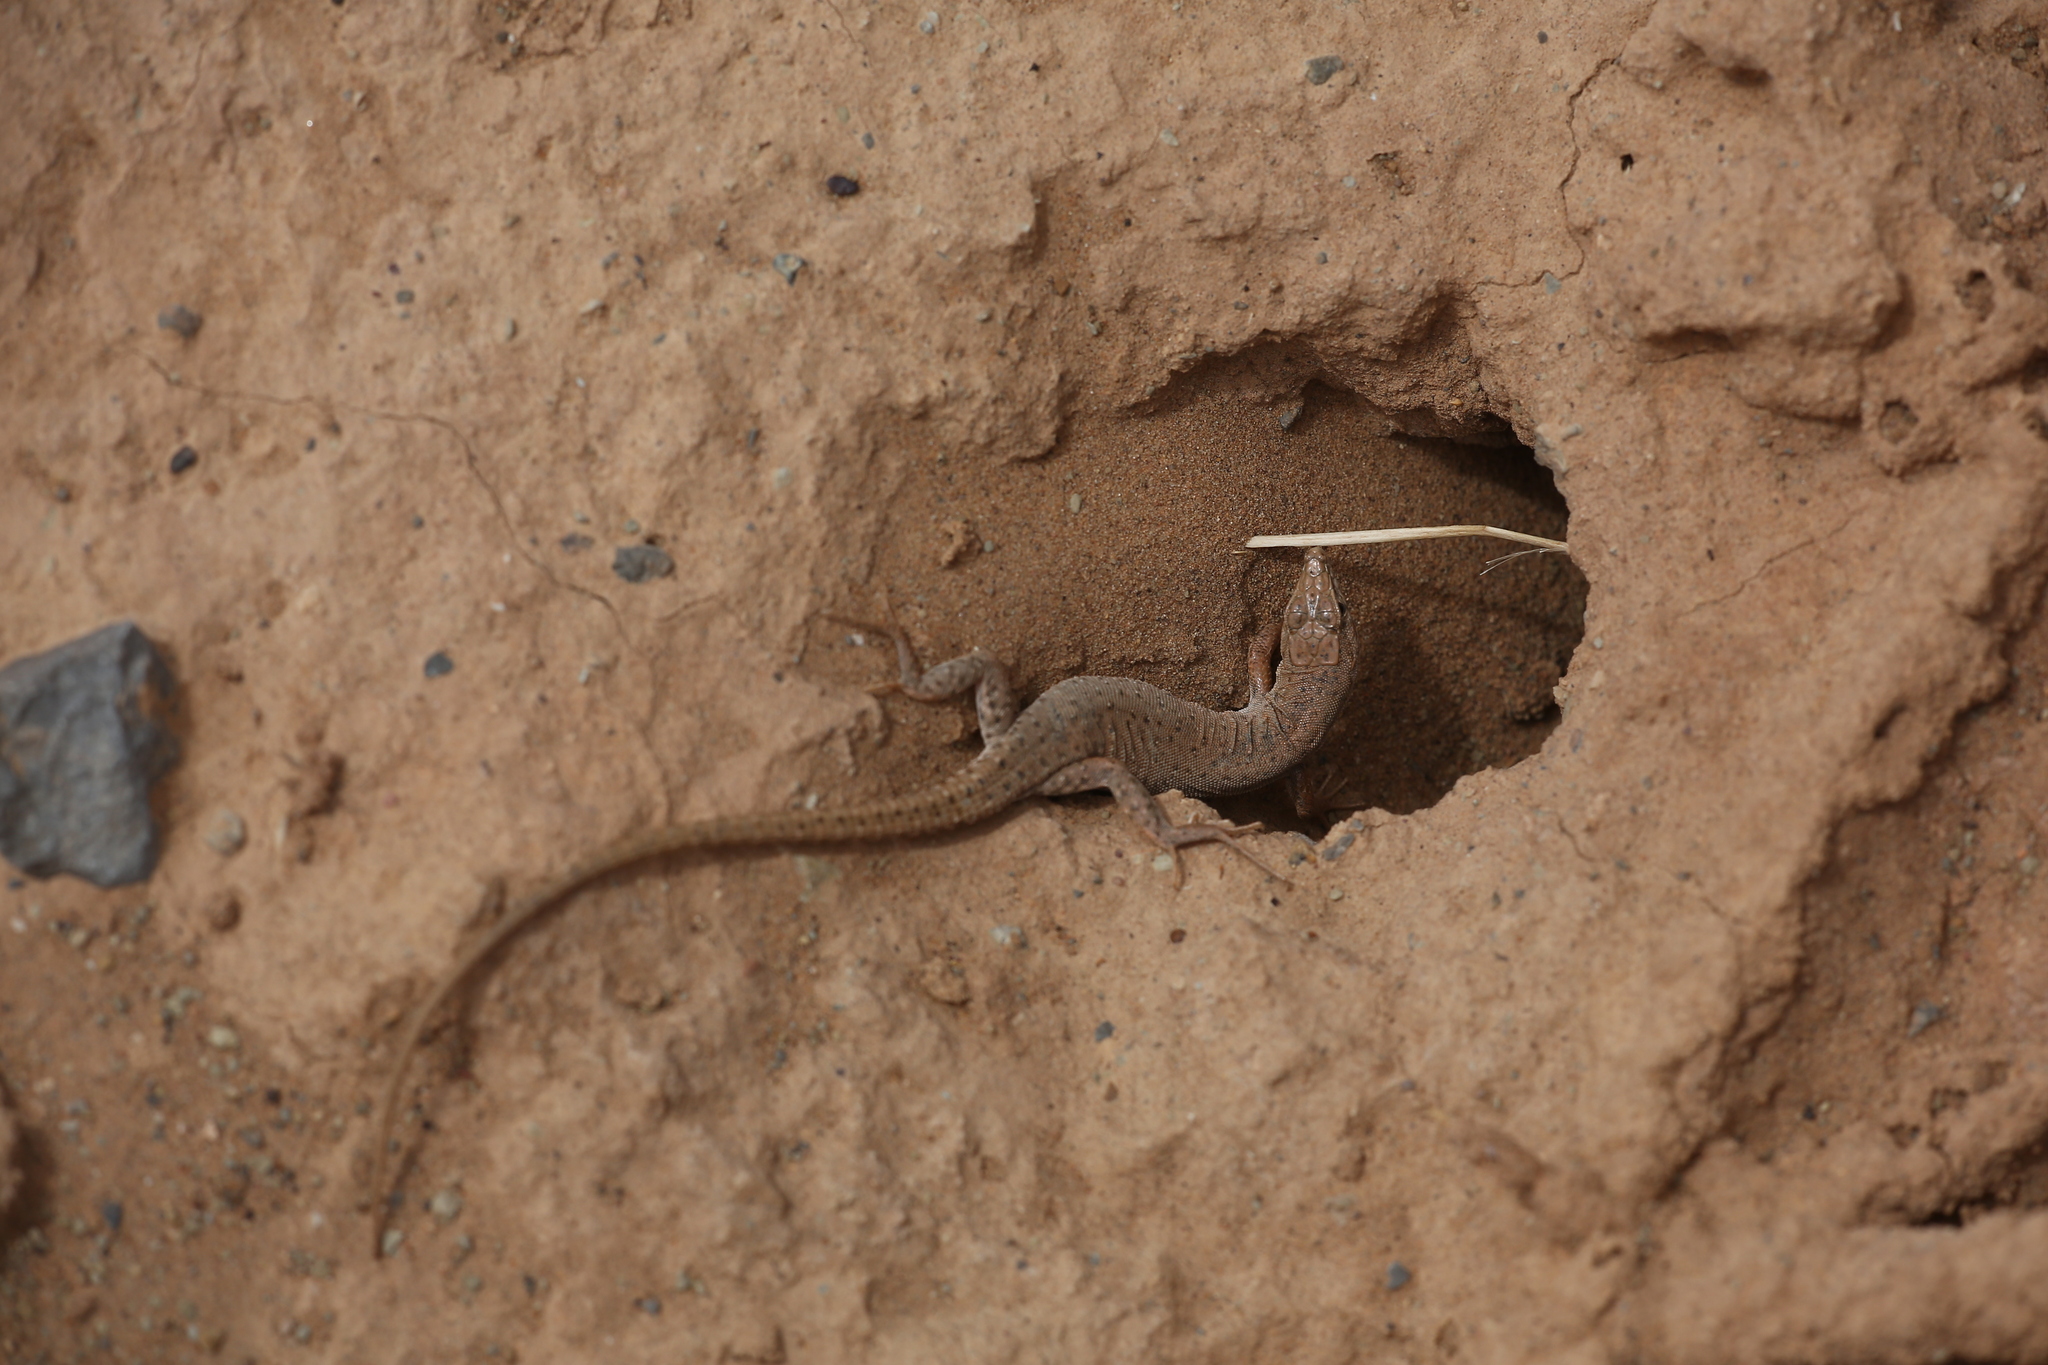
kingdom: Animalia
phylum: Chordata
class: Squamata
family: Lacertidae
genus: Mesalina
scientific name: Mesalina guttulata
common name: Desert lacerta
